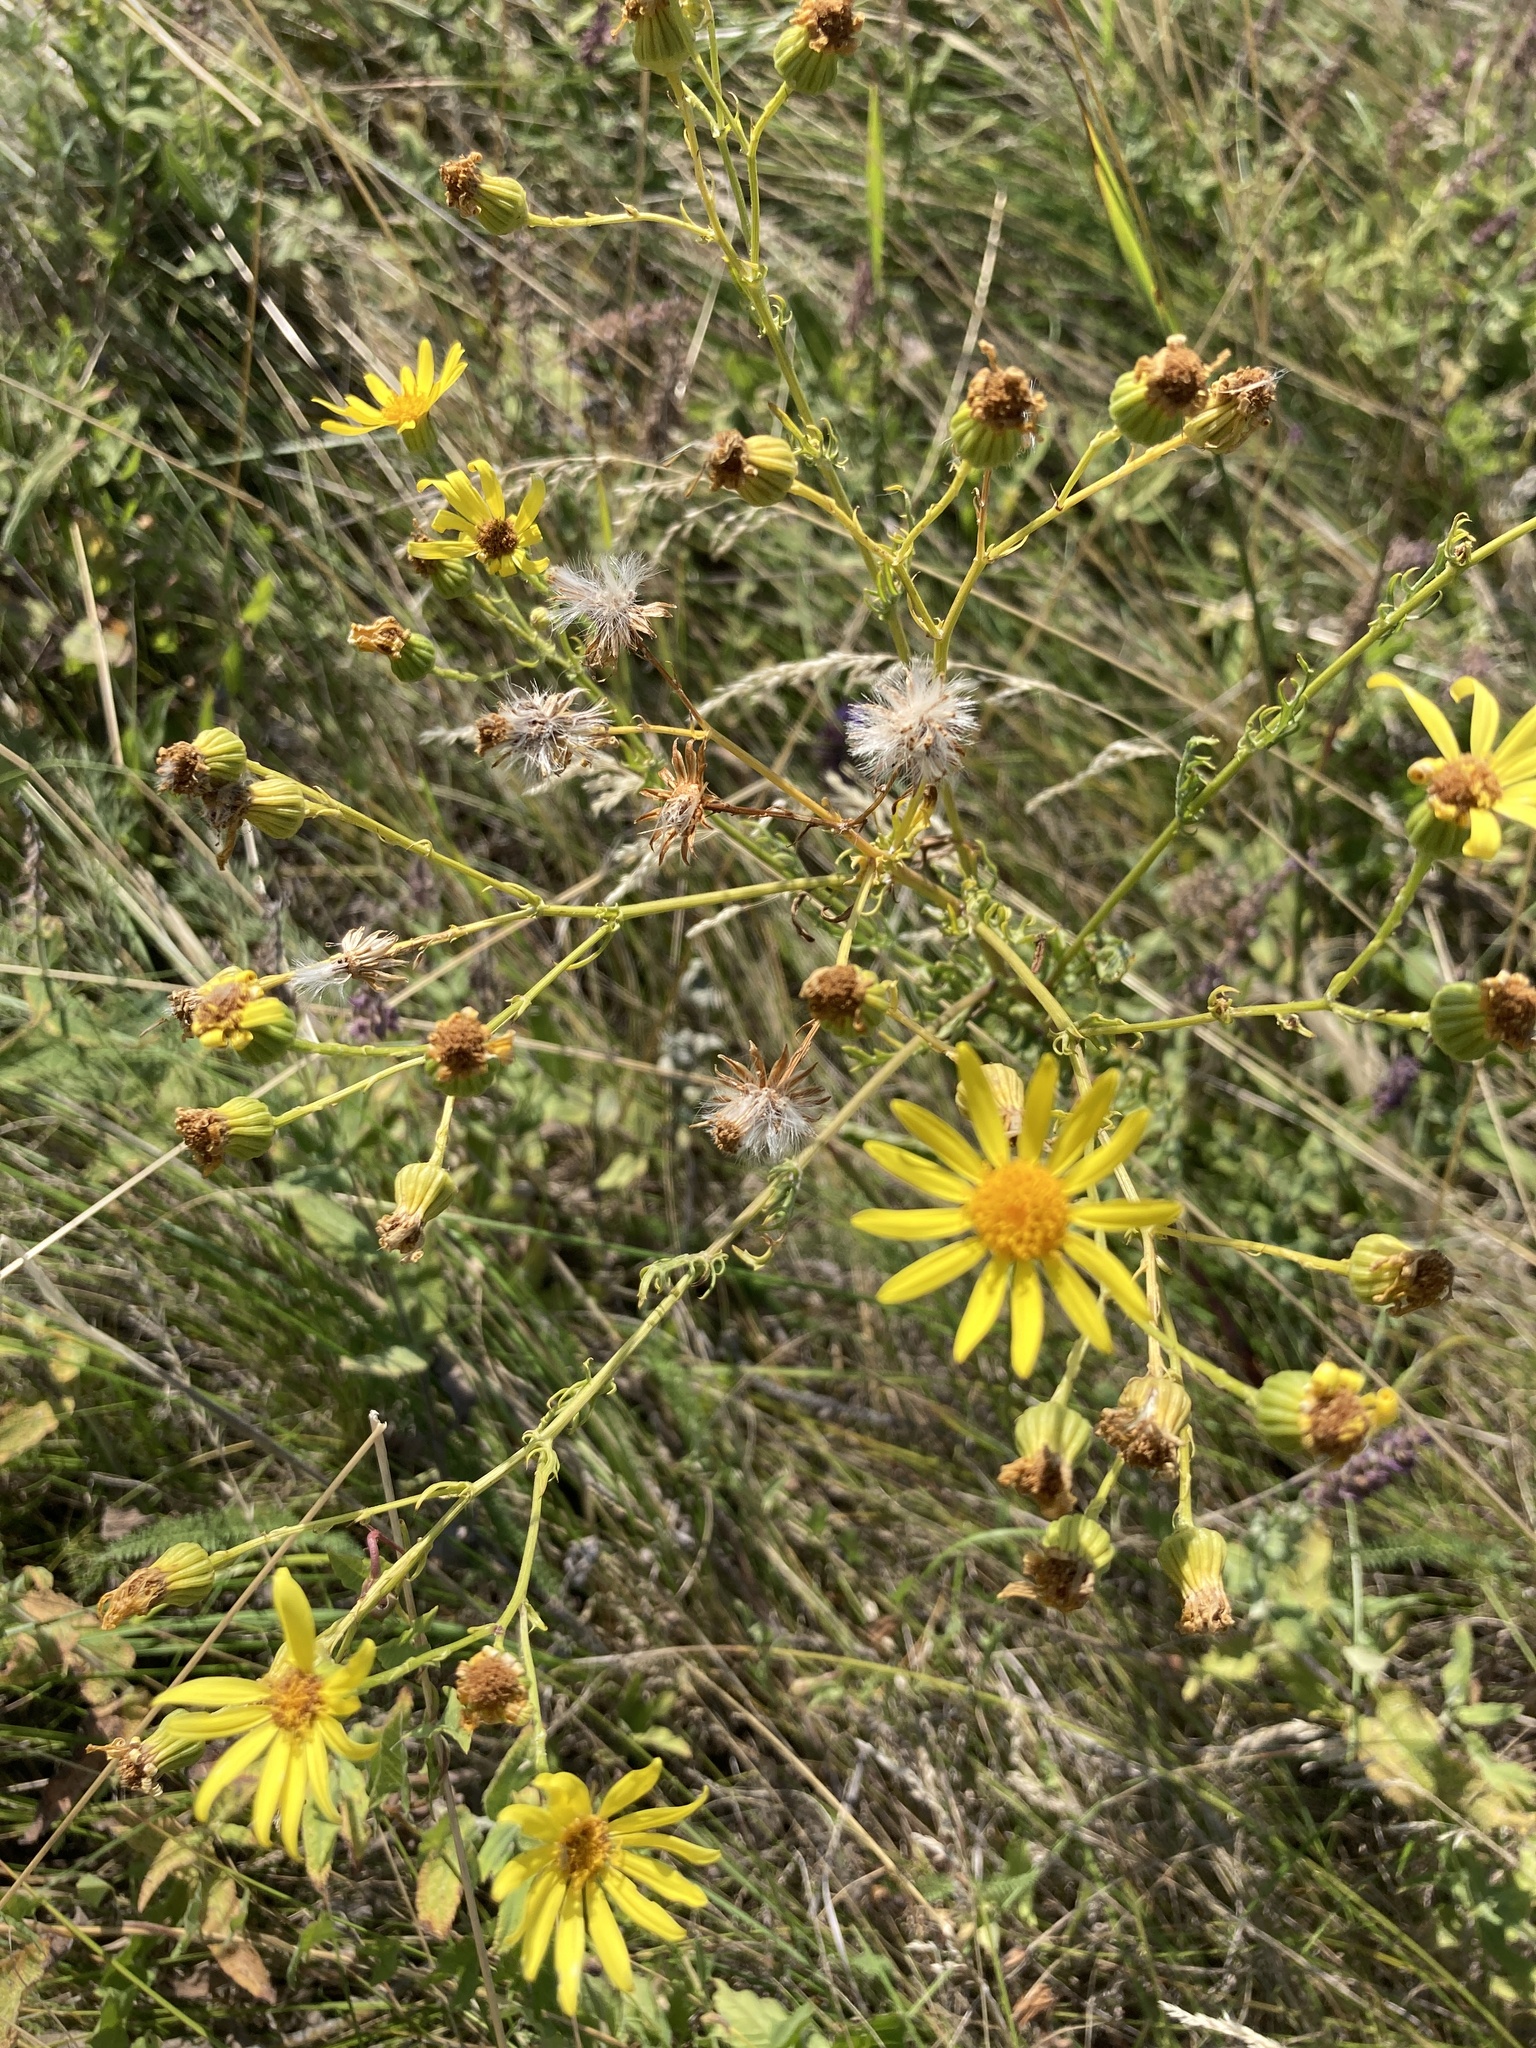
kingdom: Plantae
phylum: Tracheophyta
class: Magnoliopsida
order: Asterales
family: Asteraceae
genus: Jacobaea
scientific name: Jacobaea andrzejowskyi
